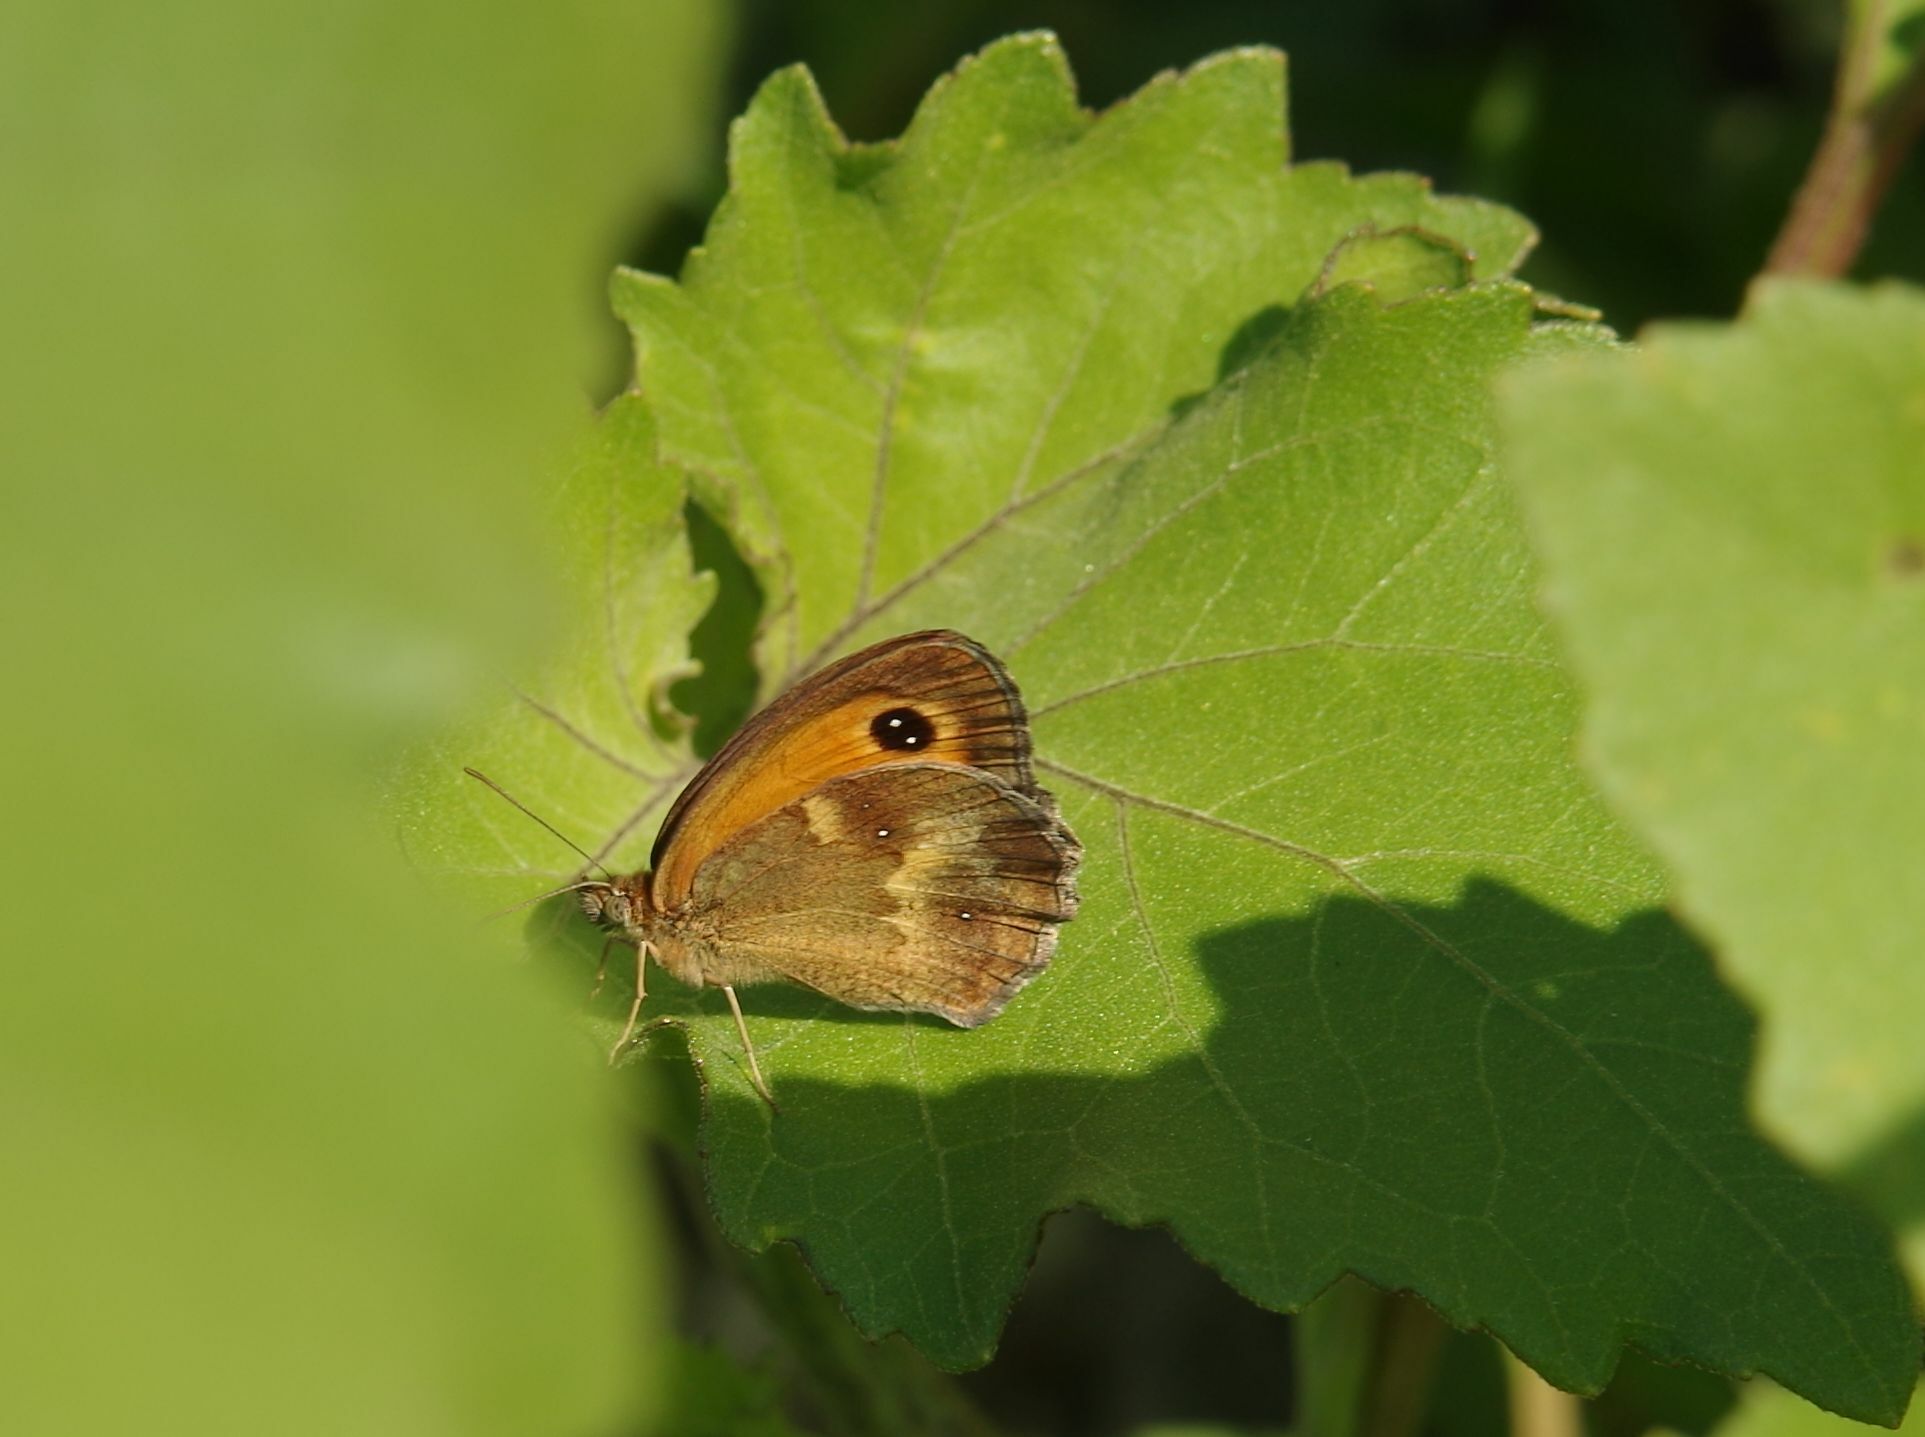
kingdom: Animalia
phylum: Arthropoda
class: Insecta
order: Lepidoptera
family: Nymphalidae
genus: Pyronia
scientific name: Pyronia tithonus
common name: Gatekeeper
